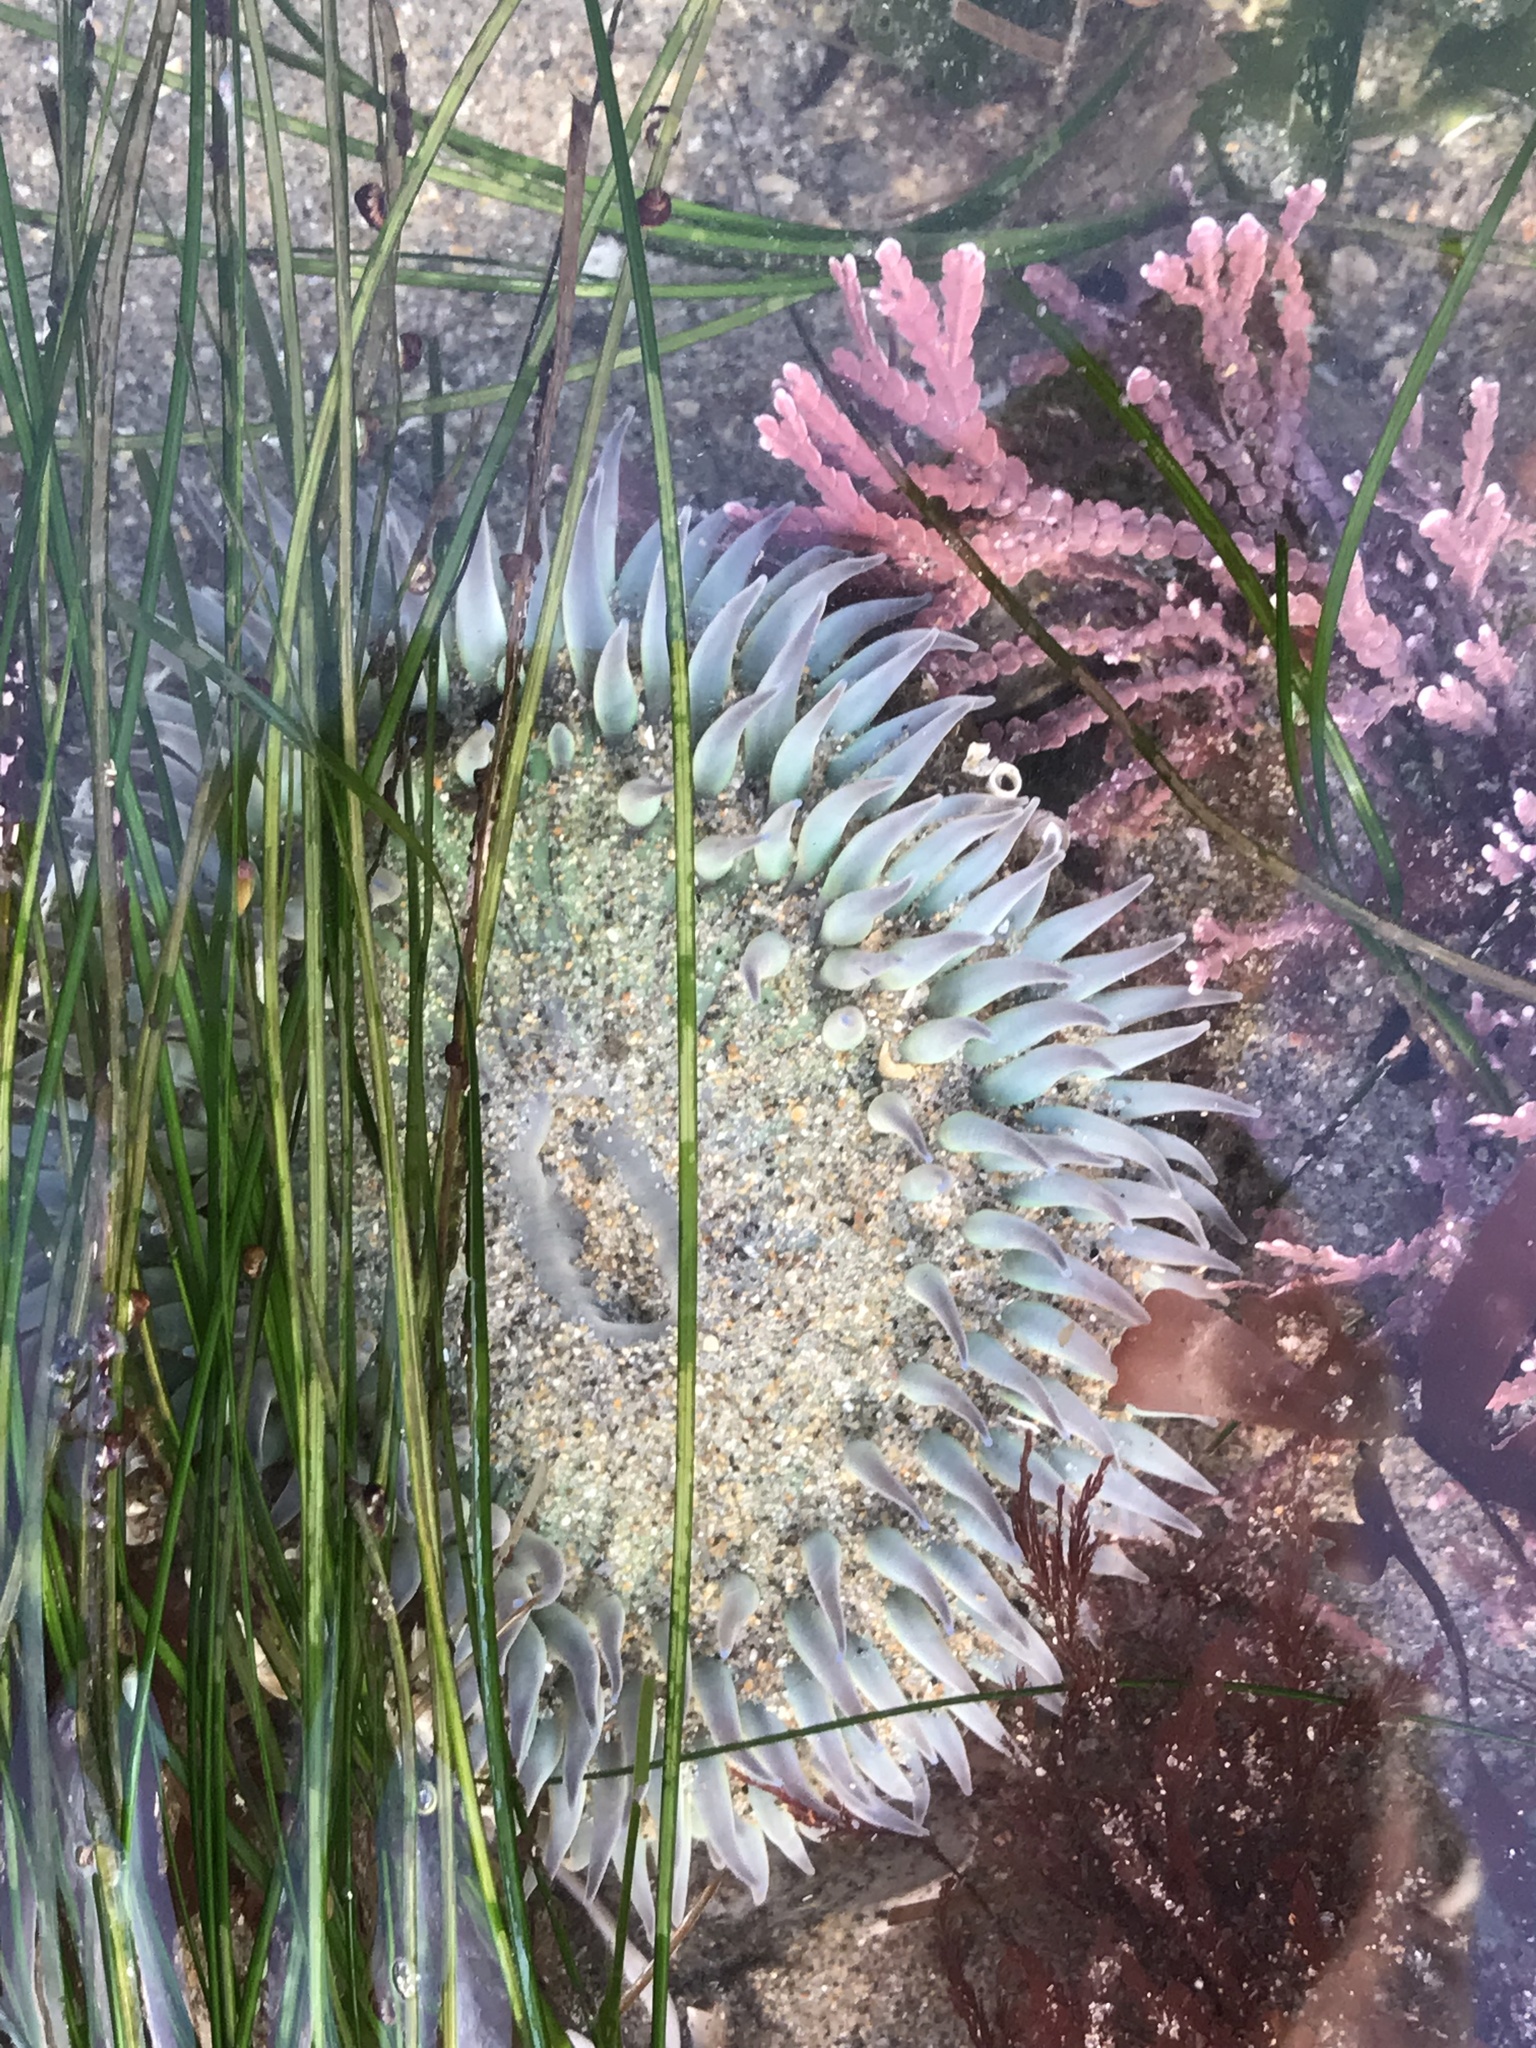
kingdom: Animalia
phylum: Cnidaria
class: Anthozoa
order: Actiniaria
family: Actiniidae
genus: Anthopleura
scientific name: Anthopleura sola
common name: Sun anemone
